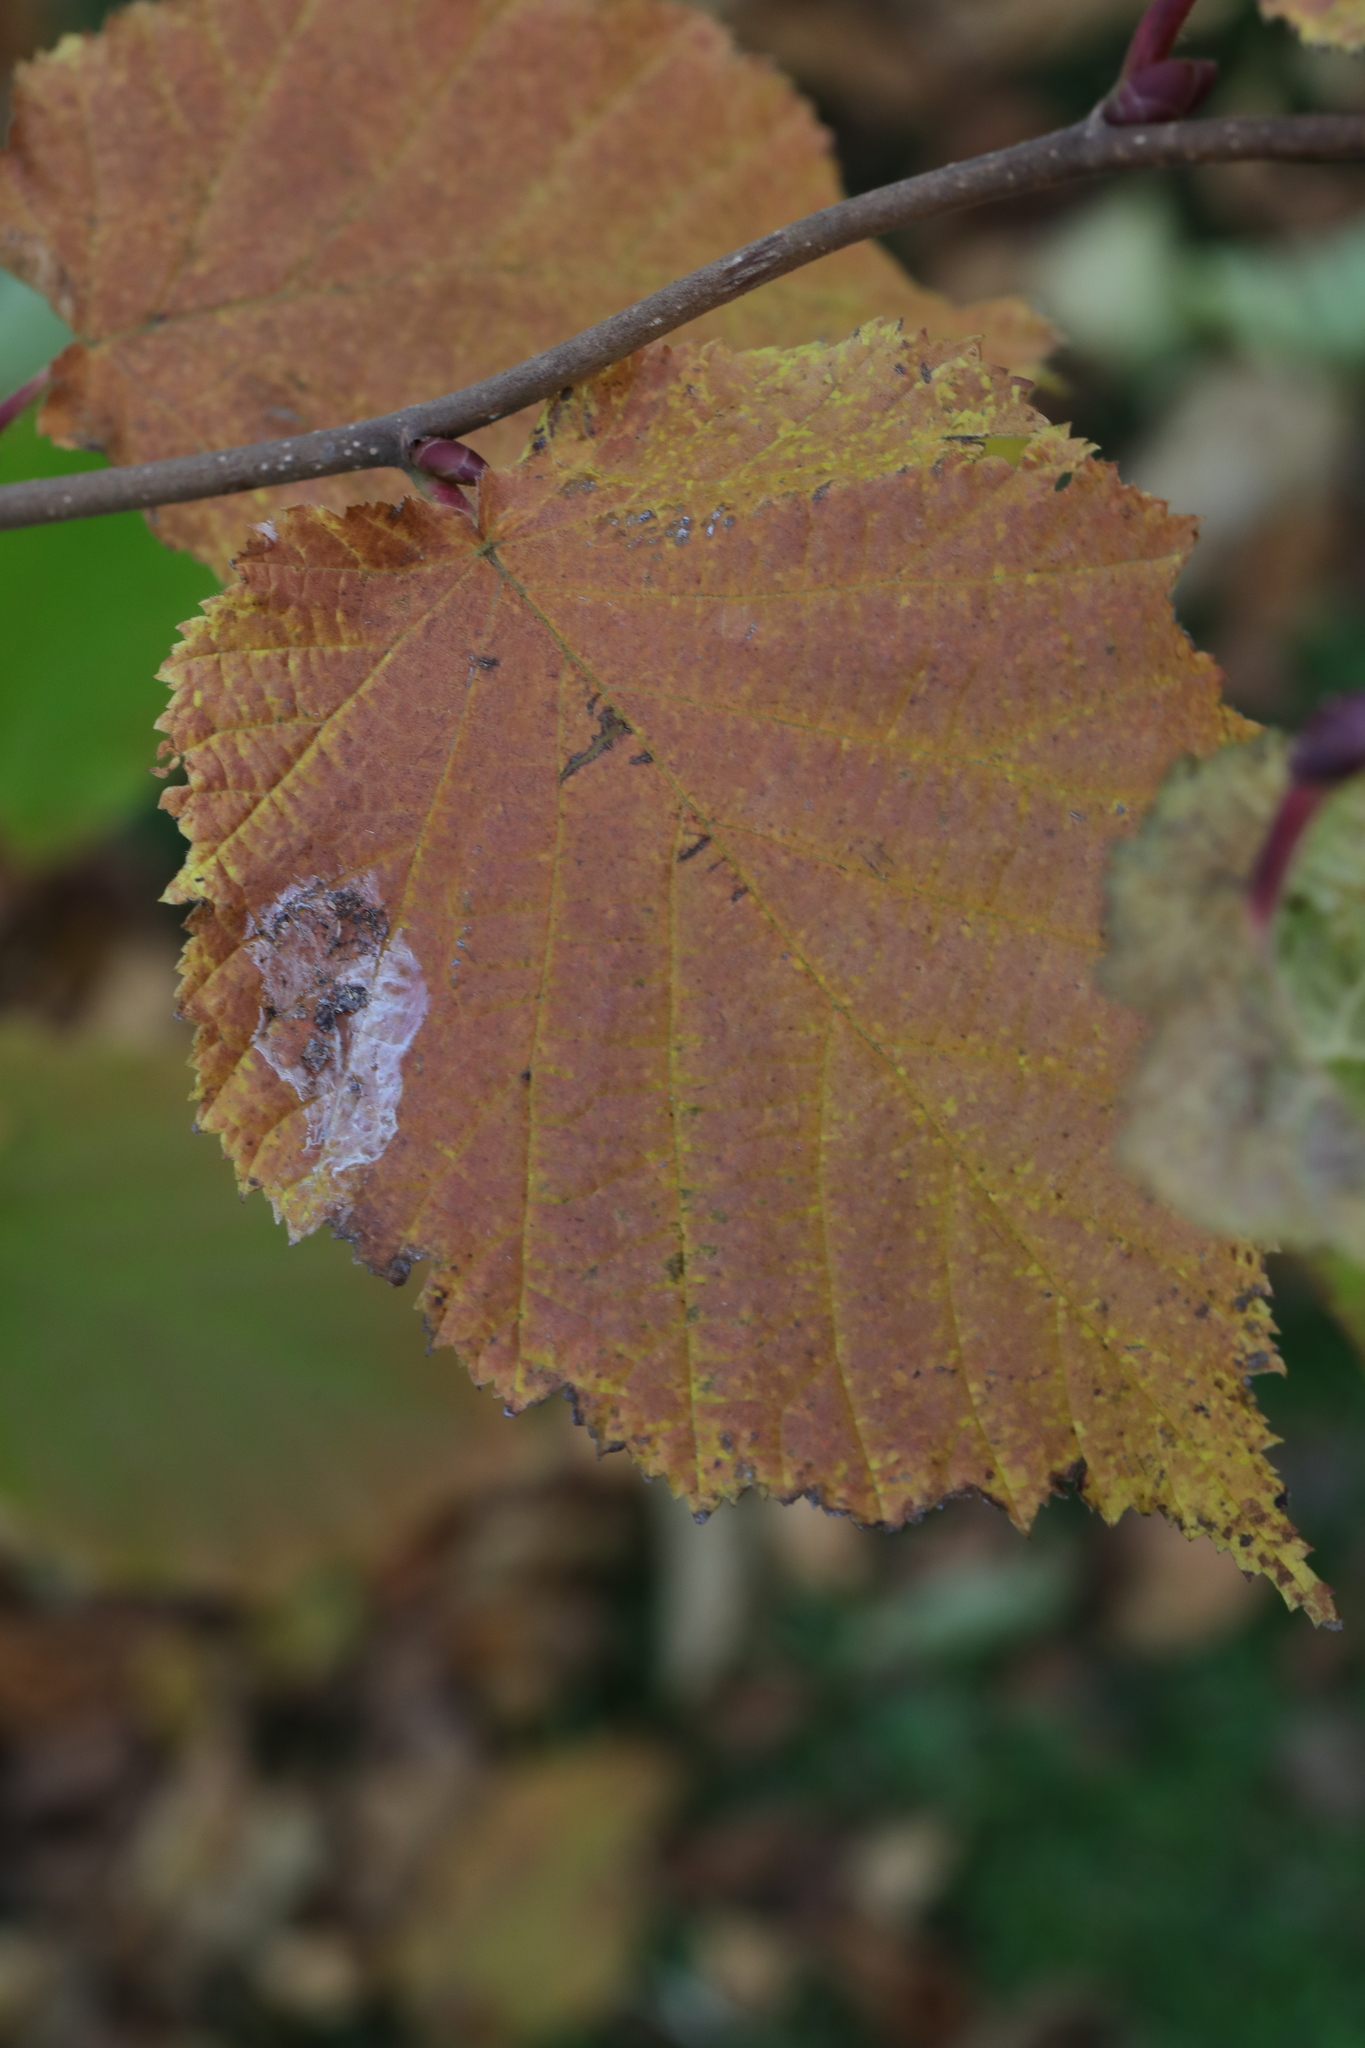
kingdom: Animalia
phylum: Arthropoda
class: Insecta
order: Lepidoptera
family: Gracillariidae
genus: Phyllonorycter
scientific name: Phyllonorycter coryli
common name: Nut-leaf blister moth
